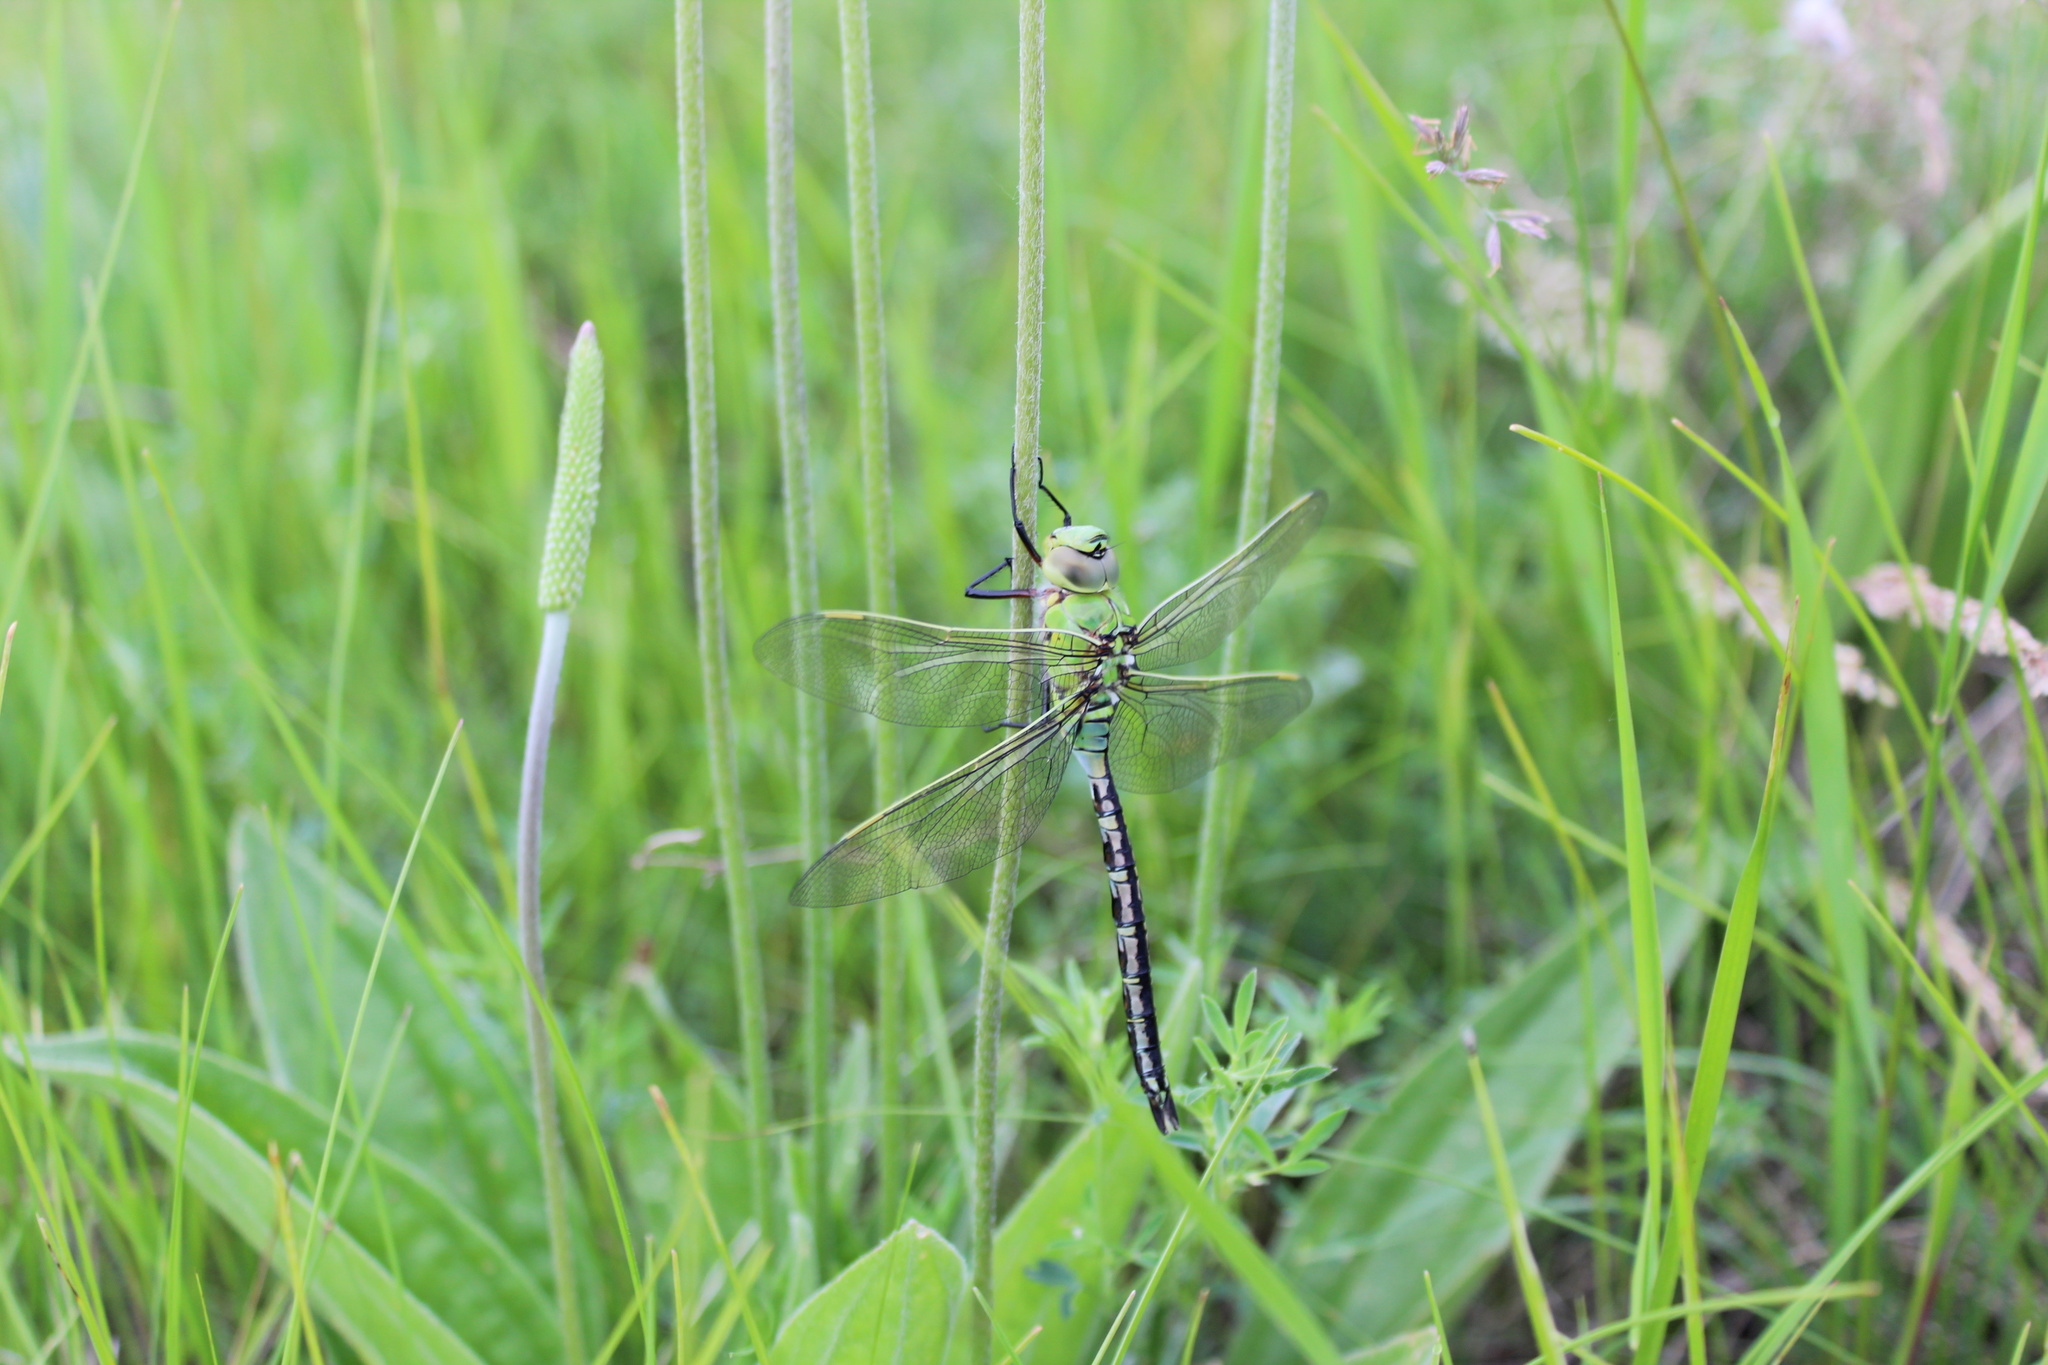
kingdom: Animalia
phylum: Arthropoda
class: Insecta
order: Odonata
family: Aeshnidae
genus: Anax
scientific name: Anax imperator
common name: Emperor dragonfly
